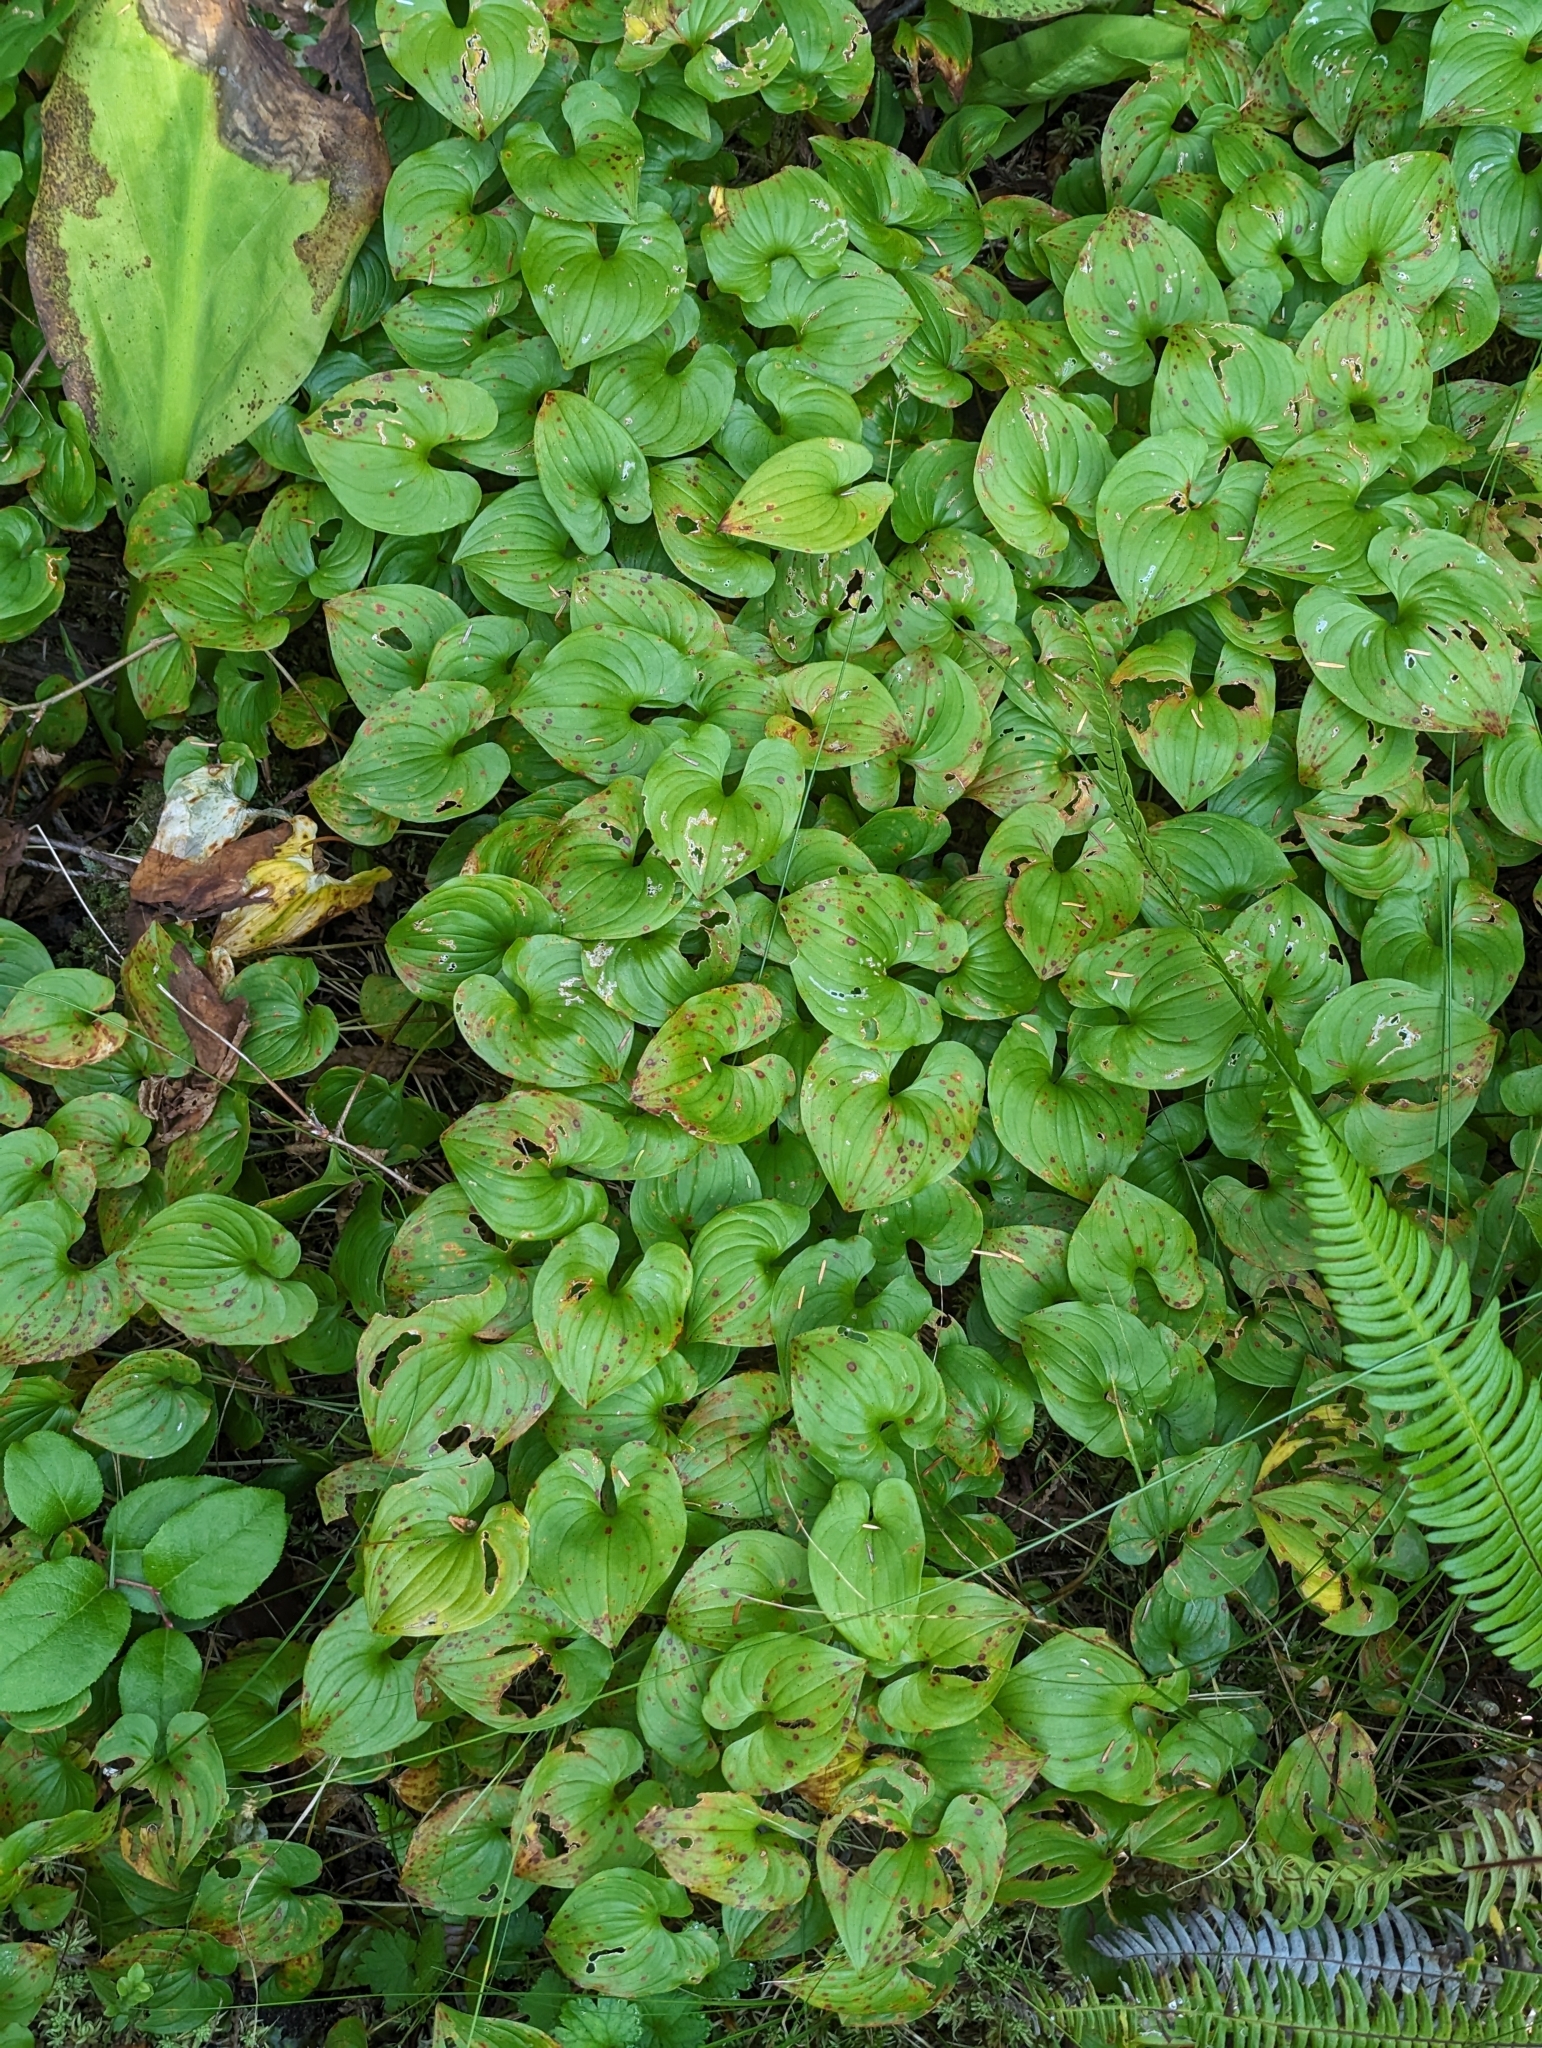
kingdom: Plantae
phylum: Tracheophyta
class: Liliopsida
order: Asparagales
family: Asparagaceae
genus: Maianthemum
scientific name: Maianthemum dilatatum
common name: False lily-of-the-valley
